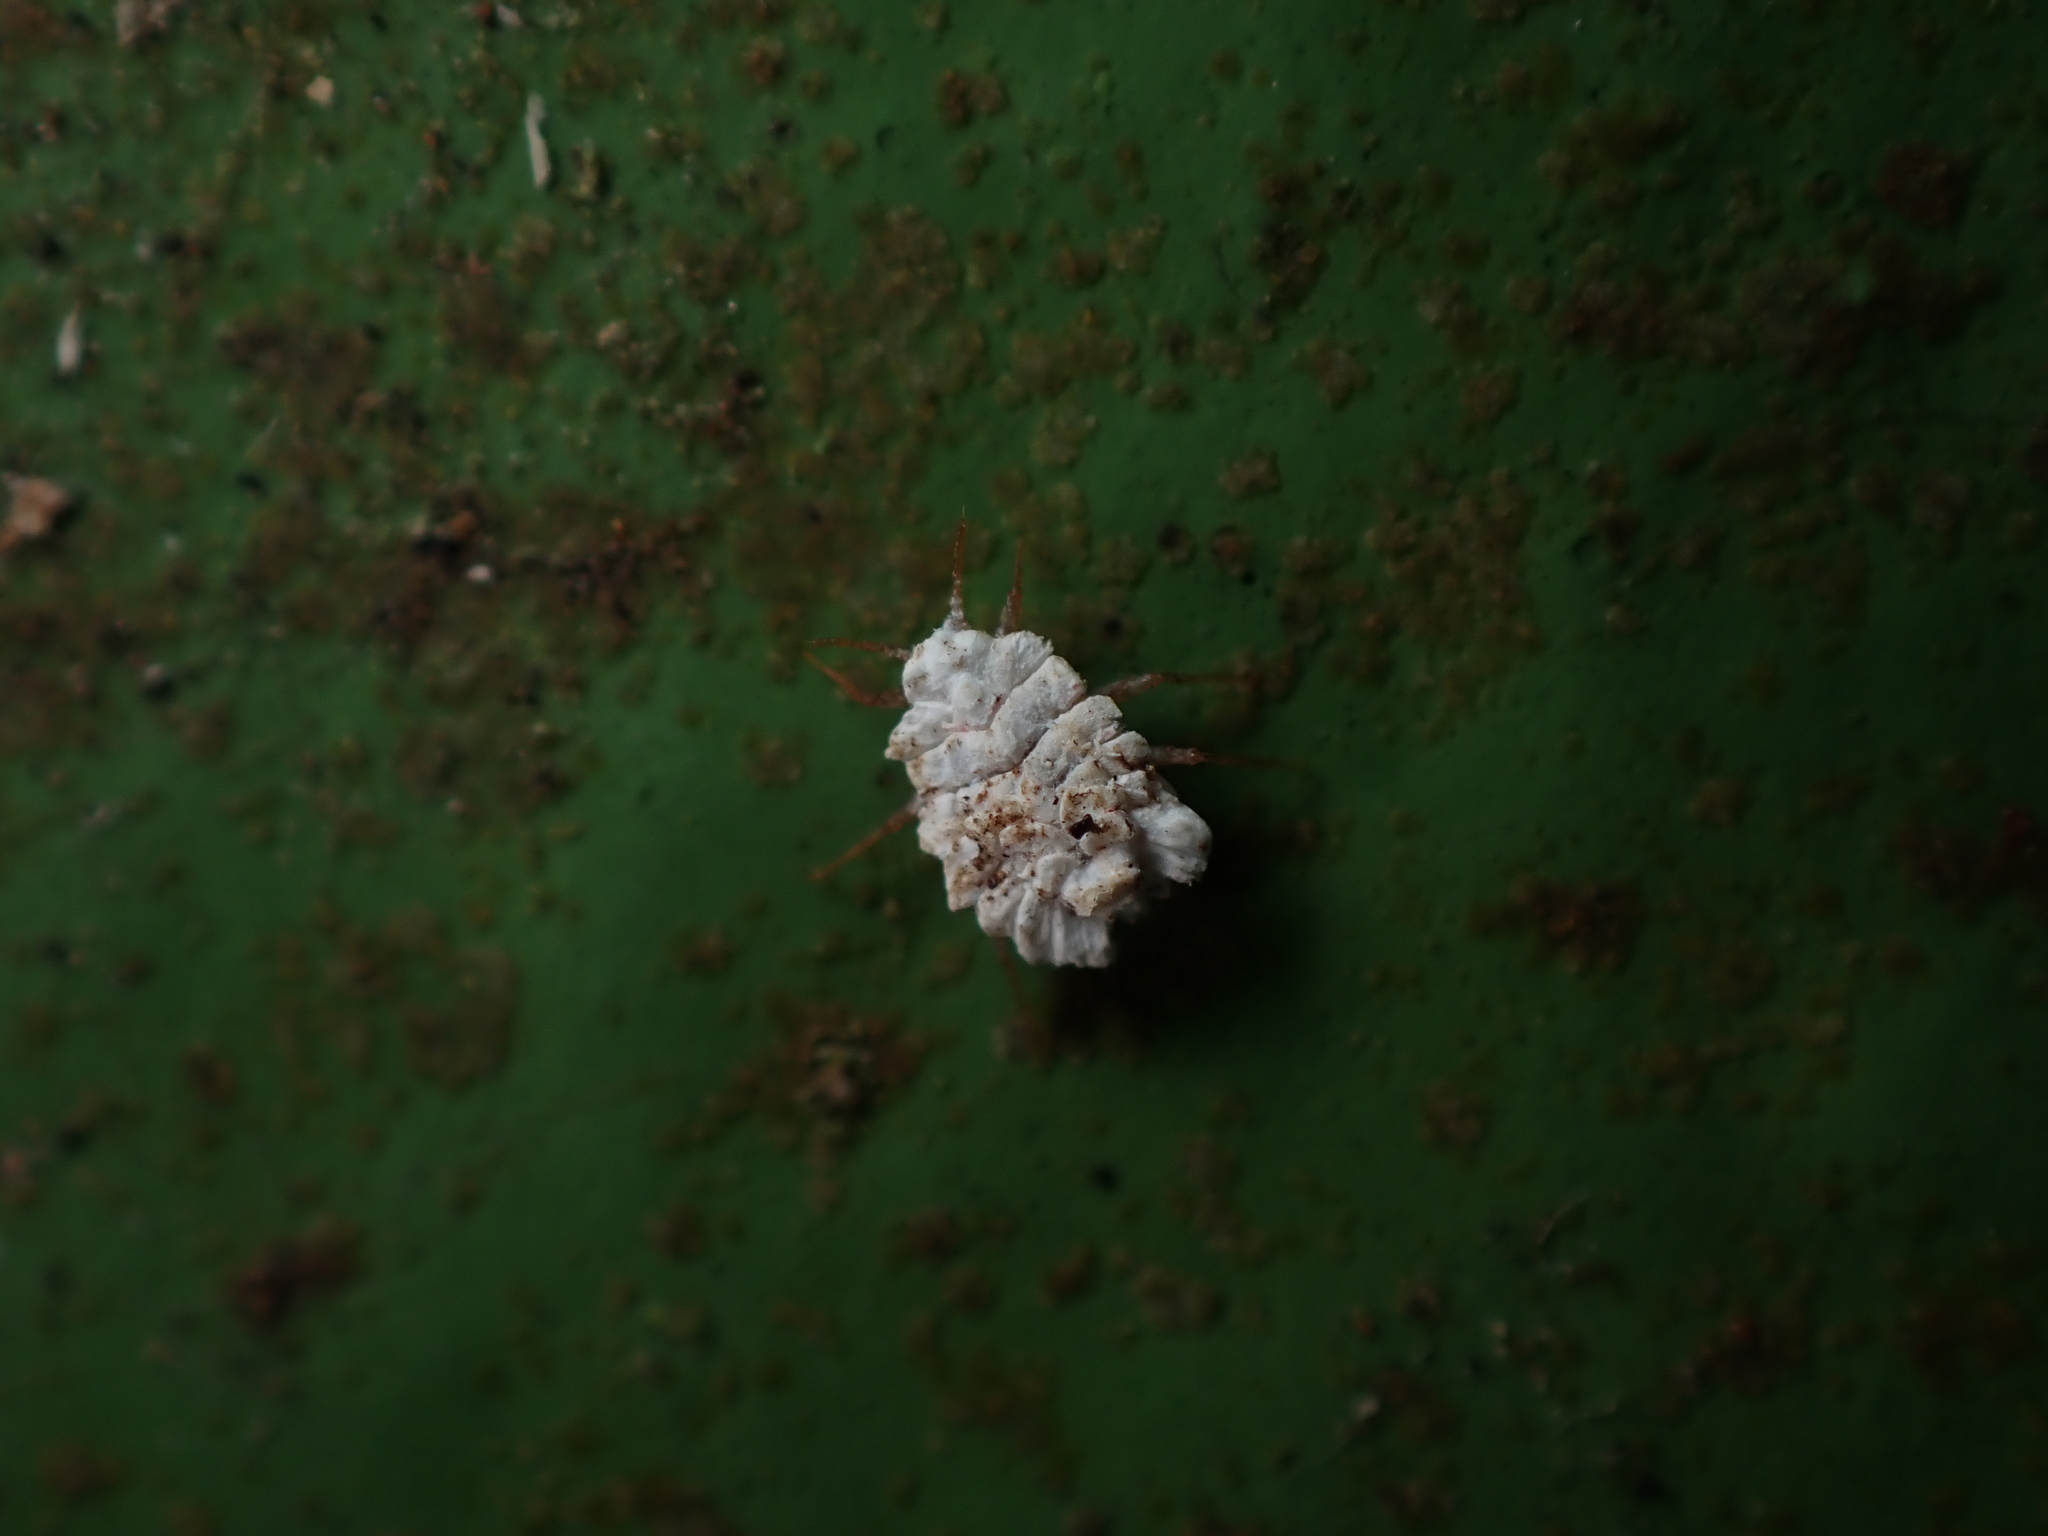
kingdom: Animalia
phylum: Arthropoda
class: Insecta
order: Hemiptera
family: Ortheziidae
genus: Newsteadia
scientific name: Newsteadia gullanae
